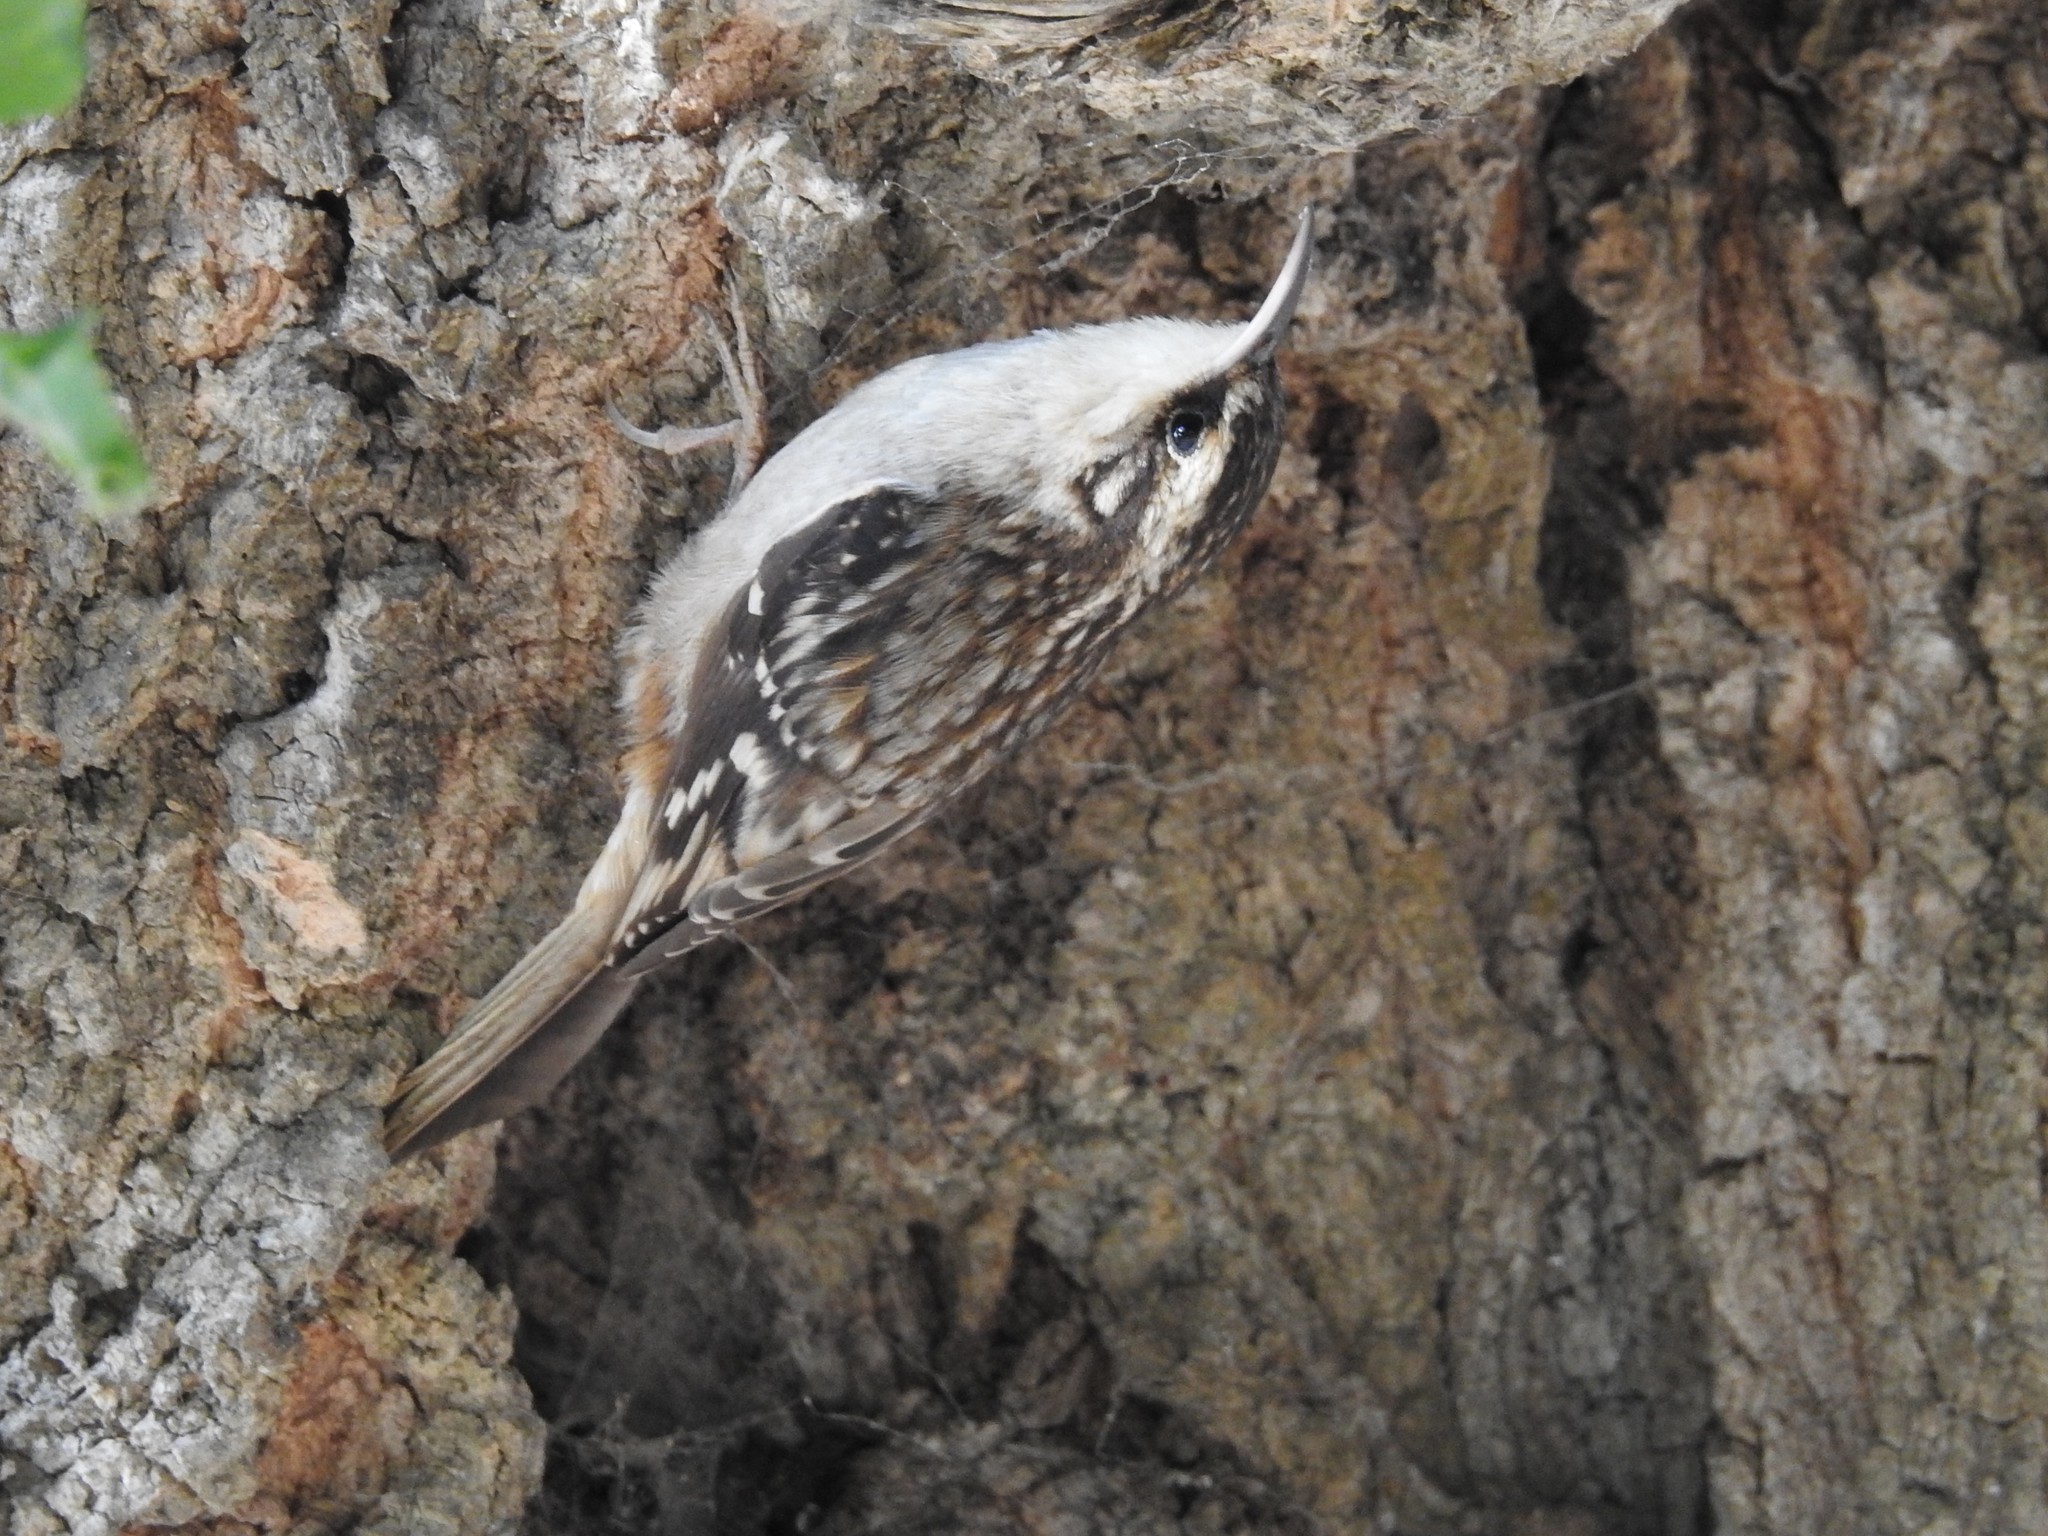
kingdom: Animalia
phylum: Chordata
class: Aves
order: Passeriformes
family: Certhiidae
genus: Certhia
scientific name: Certhia americana
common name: Brown creeper
